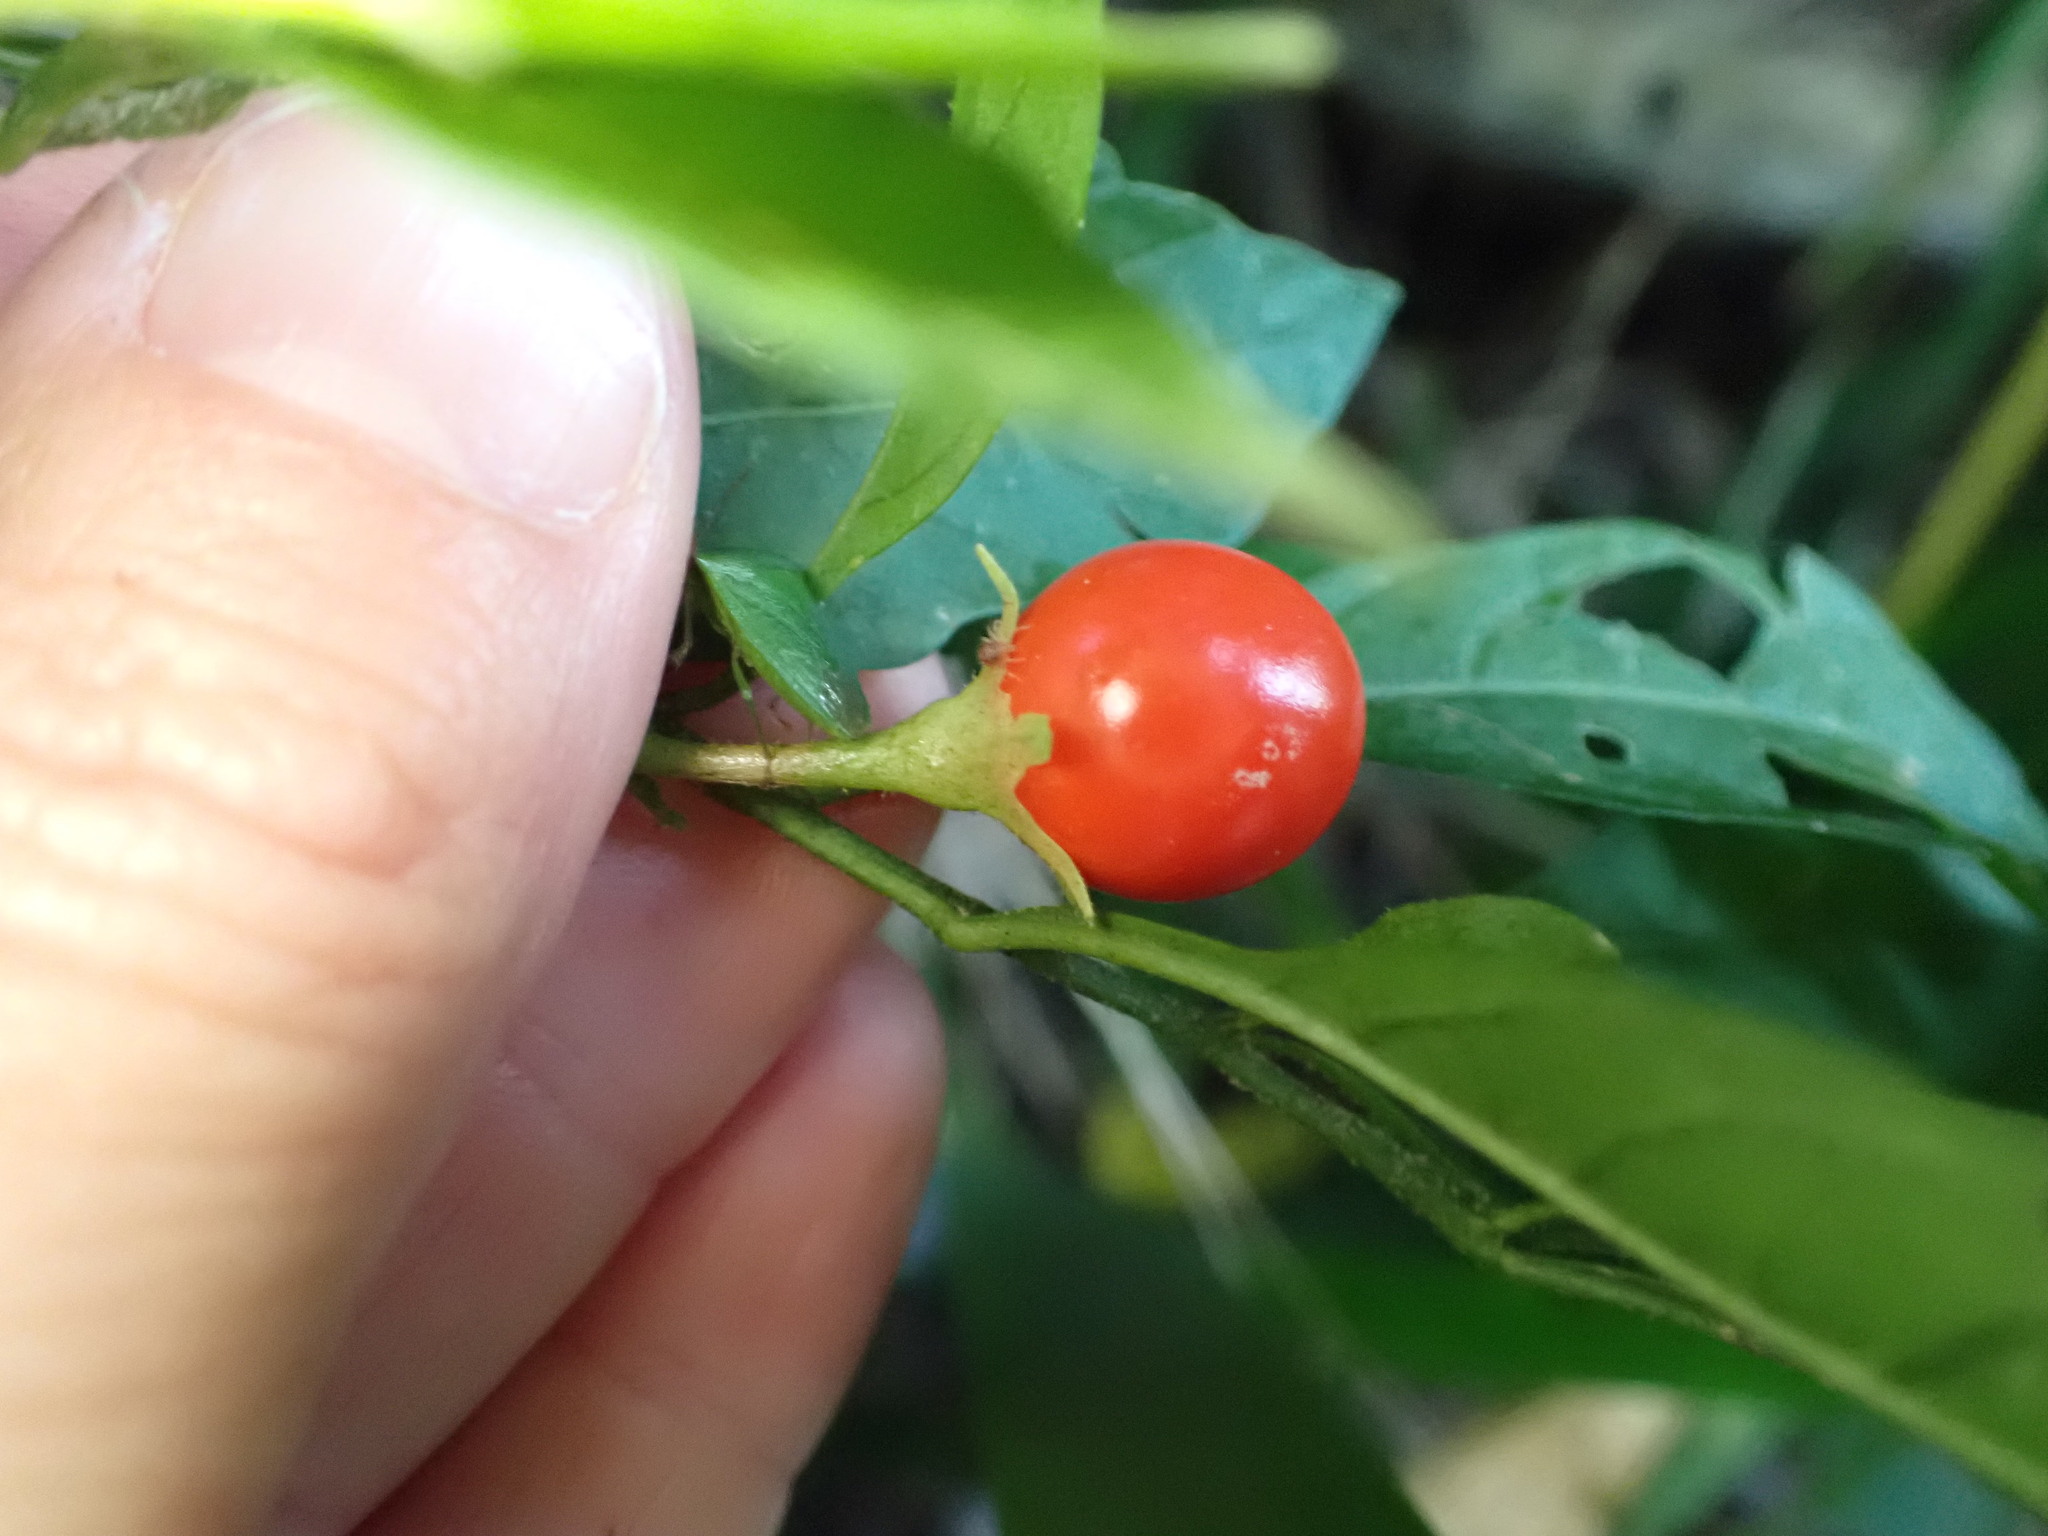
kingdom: Plantae
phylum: Tracheophyta
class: Magnoliopsida
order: Solanales
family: Solanaceae
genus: Solanum
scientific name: Solanum pseudocapsicum
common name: Jerusalem cherry
